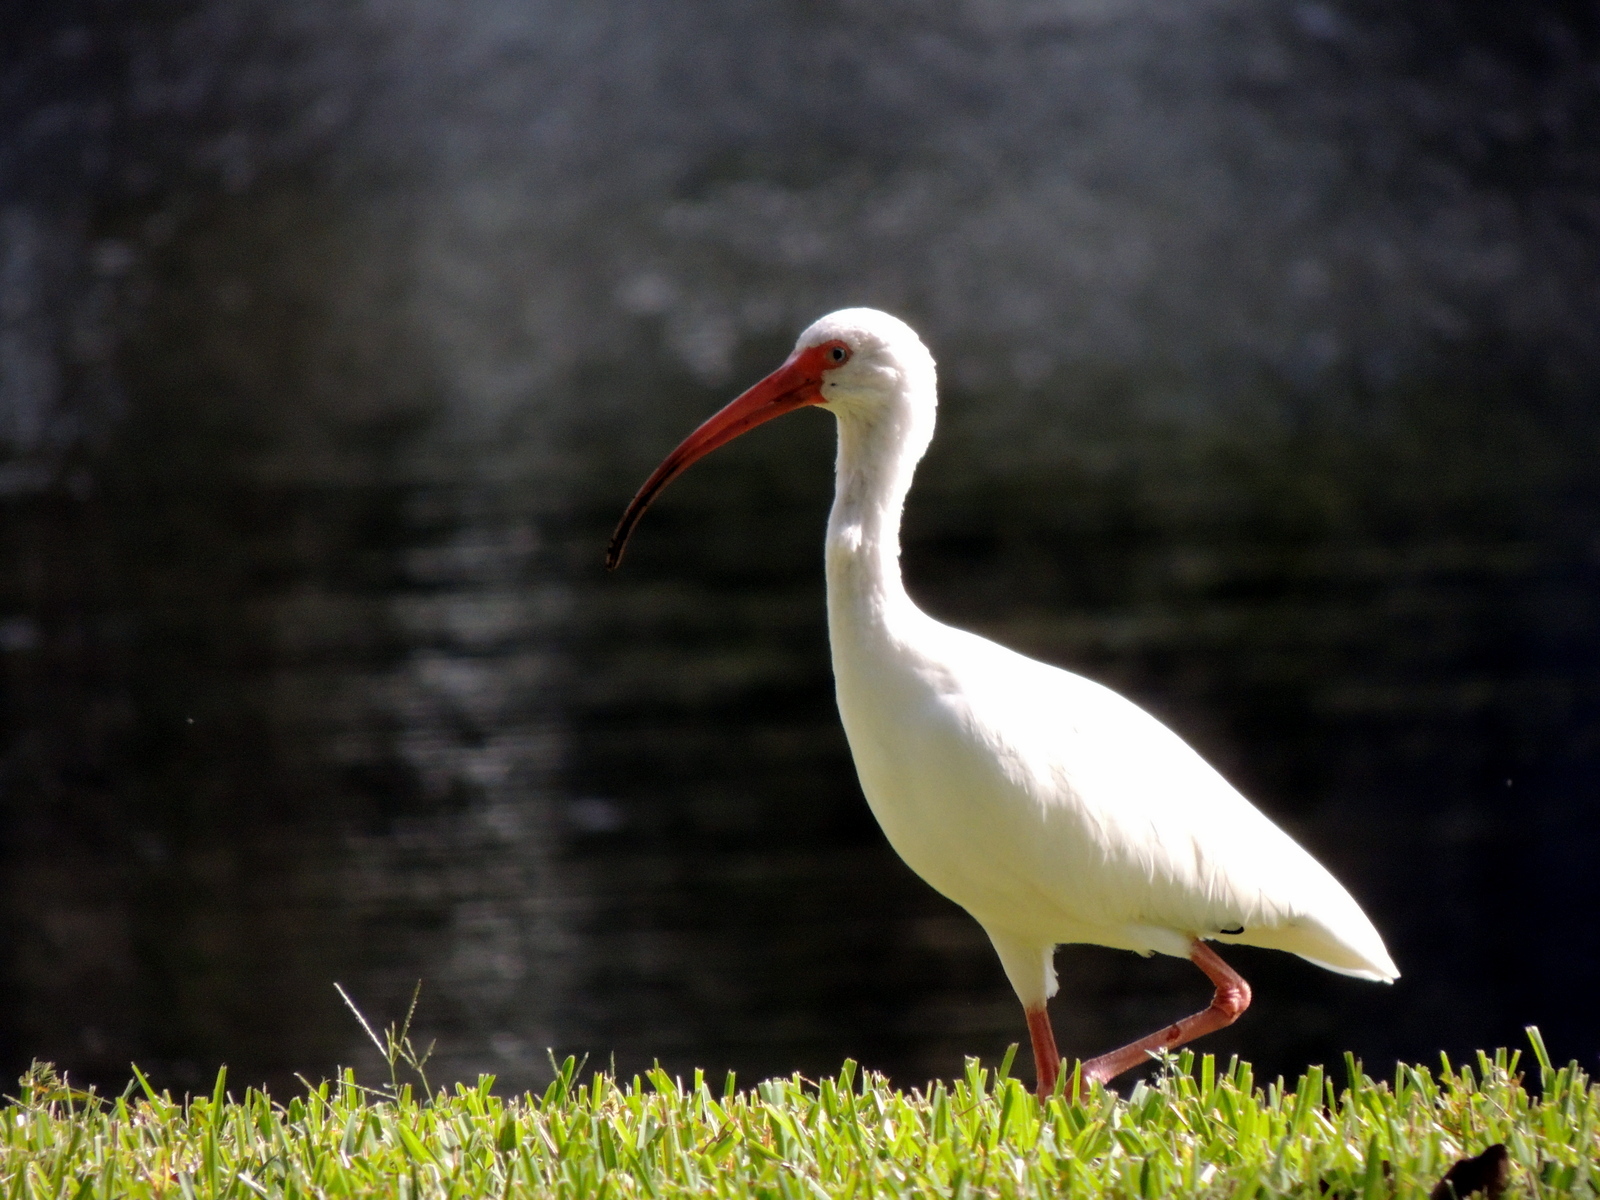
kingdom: Animalia
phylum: Chordata
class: Aves
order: Pelecaniformes
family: Threskiornithidae
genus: Eudocimus
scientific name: Eudocimus albus
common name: White ibis
